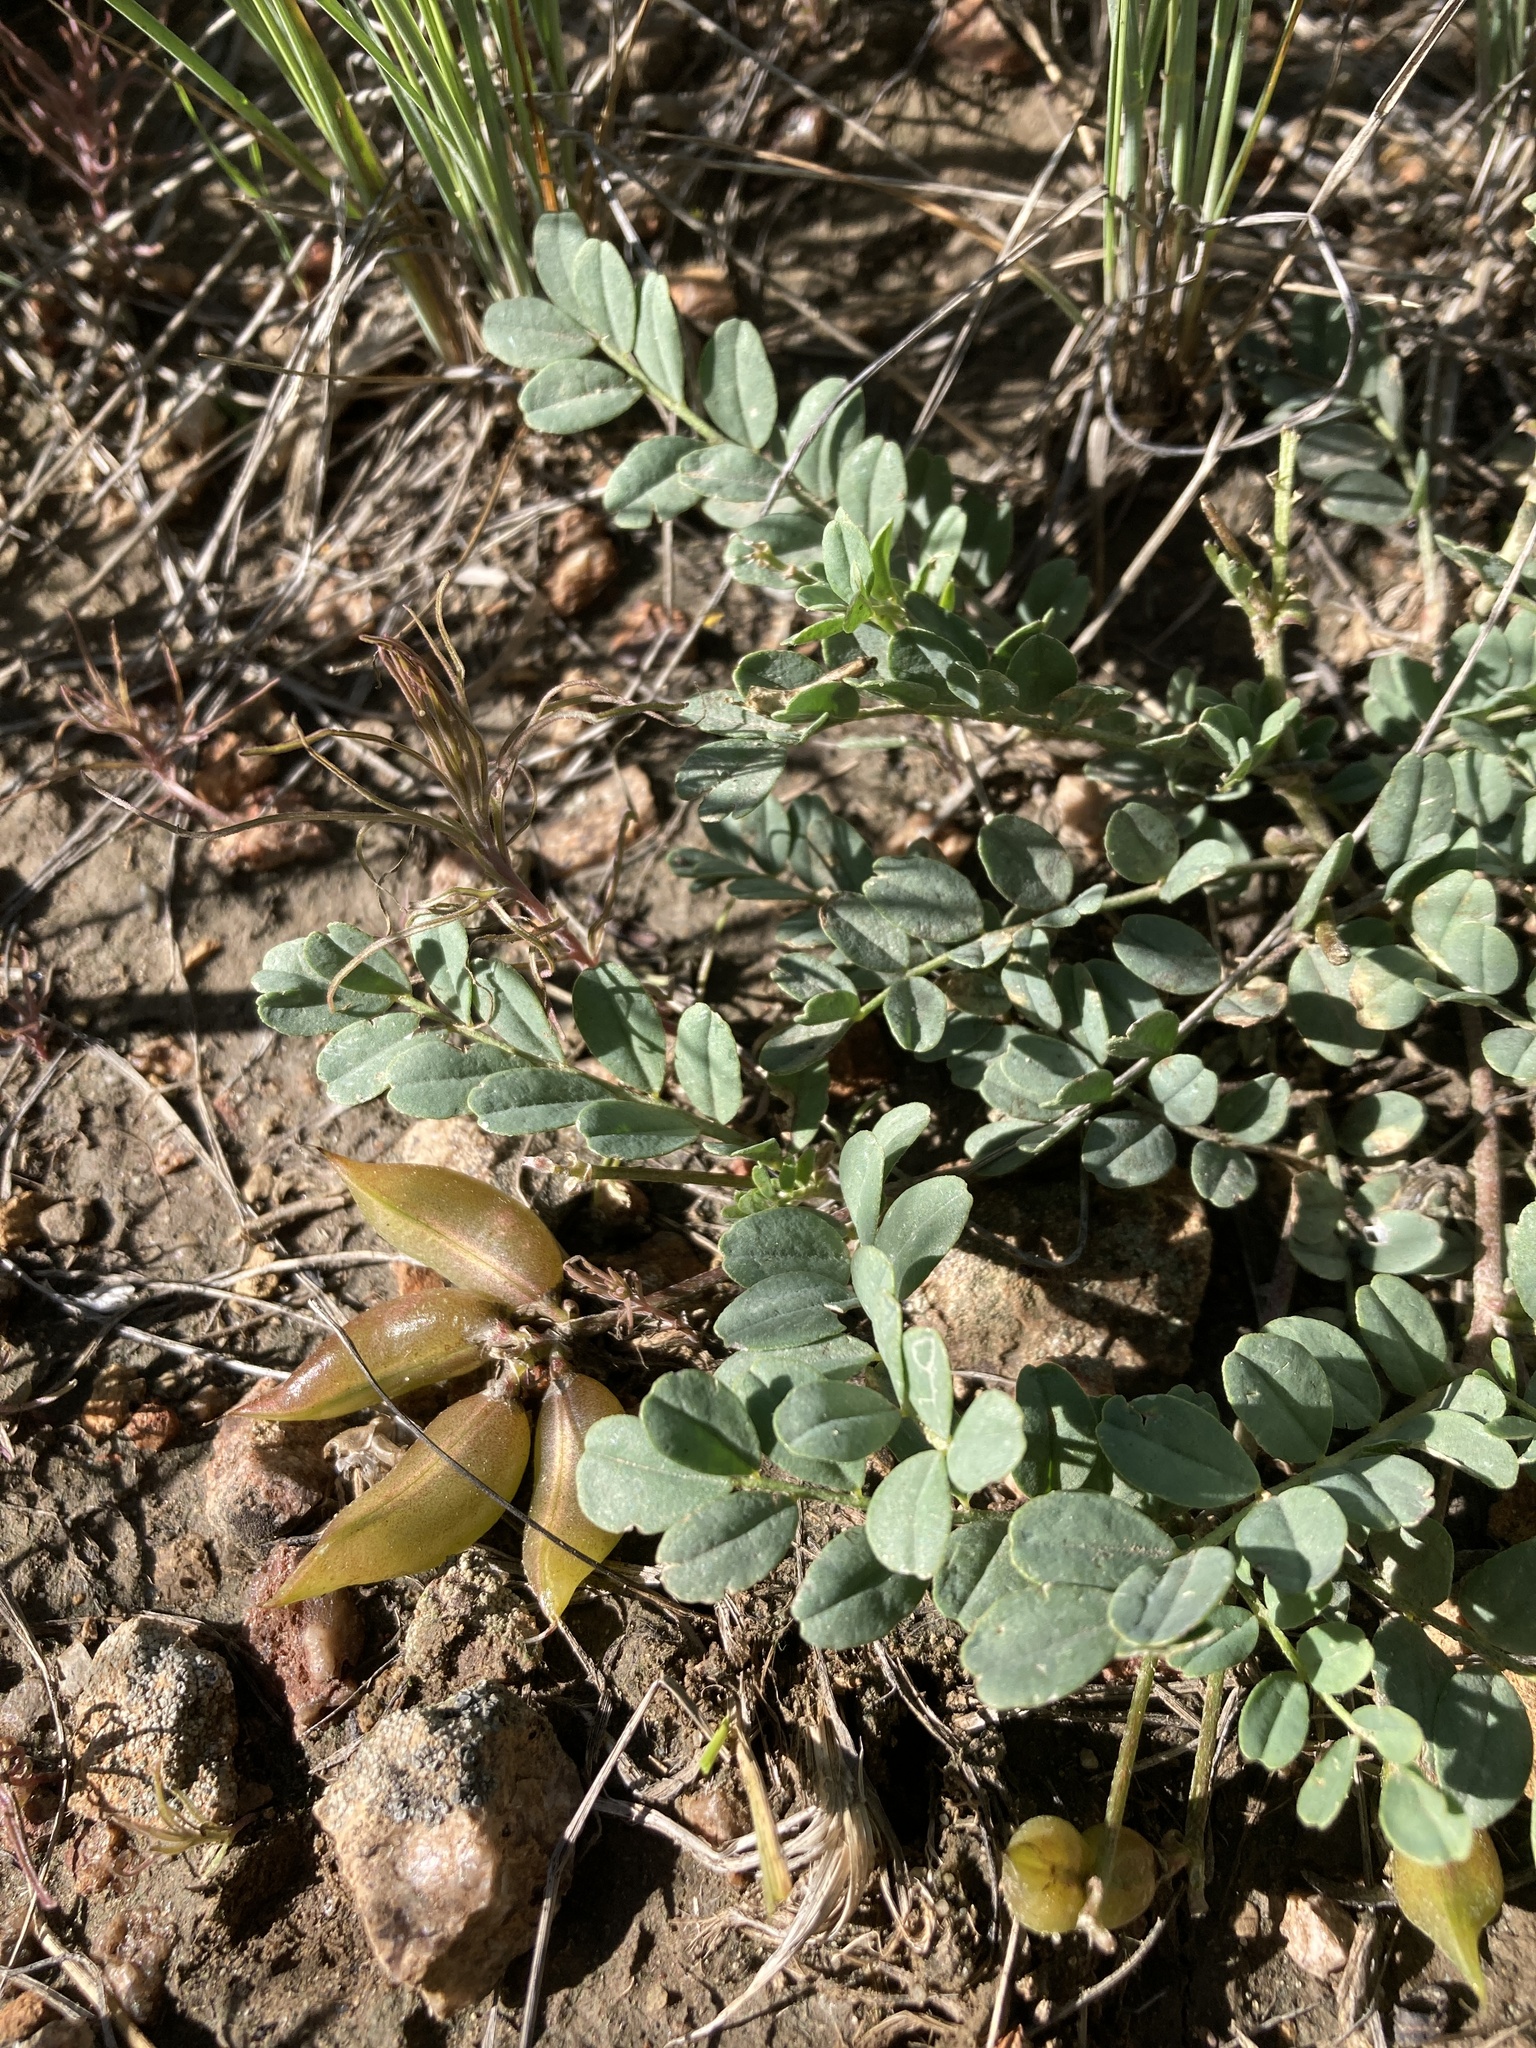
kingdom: Plantae
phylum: Tracheophyta
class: Magnoliopsida
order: Fabales
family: Fabaceae
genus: Astragalus
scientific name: Astragalus cibarius
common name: Browse milk-vetch
